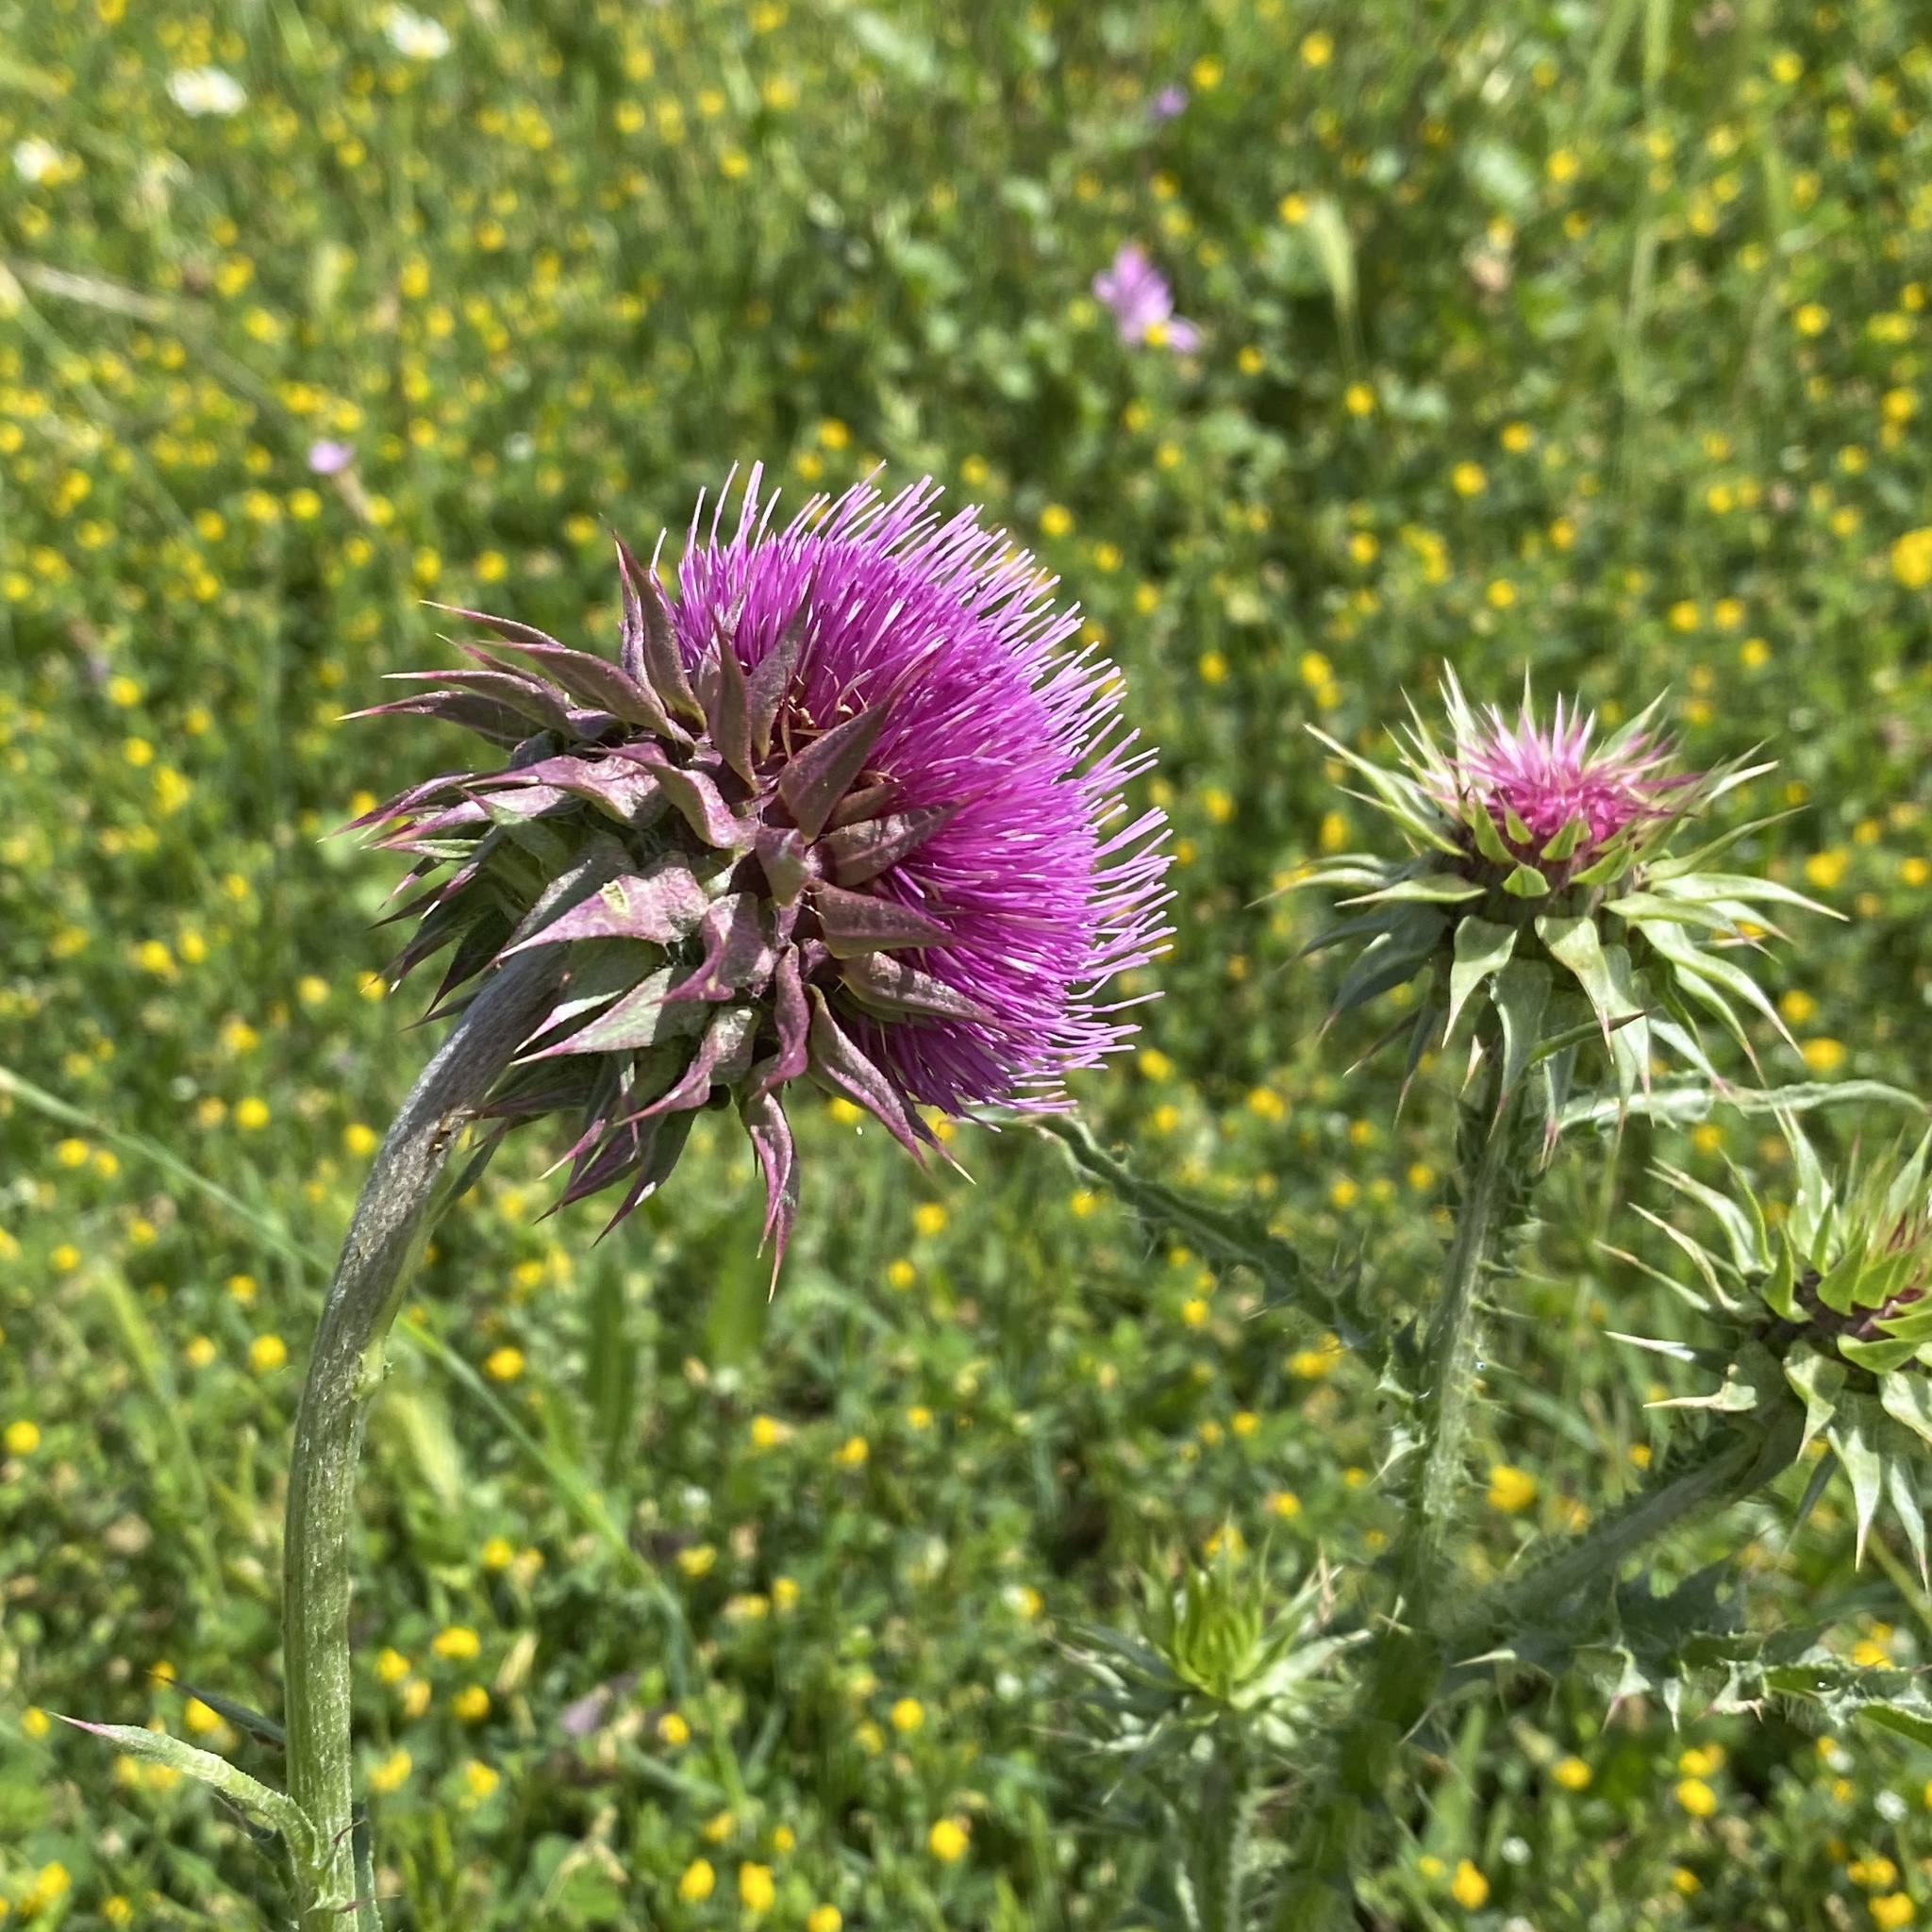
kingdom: Plantae
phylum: Tracheophyta
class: Magnoliopsida
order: Asterales
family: Asteraceae
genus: Carduus
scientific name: Carduus nutans
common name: Musk thistle
